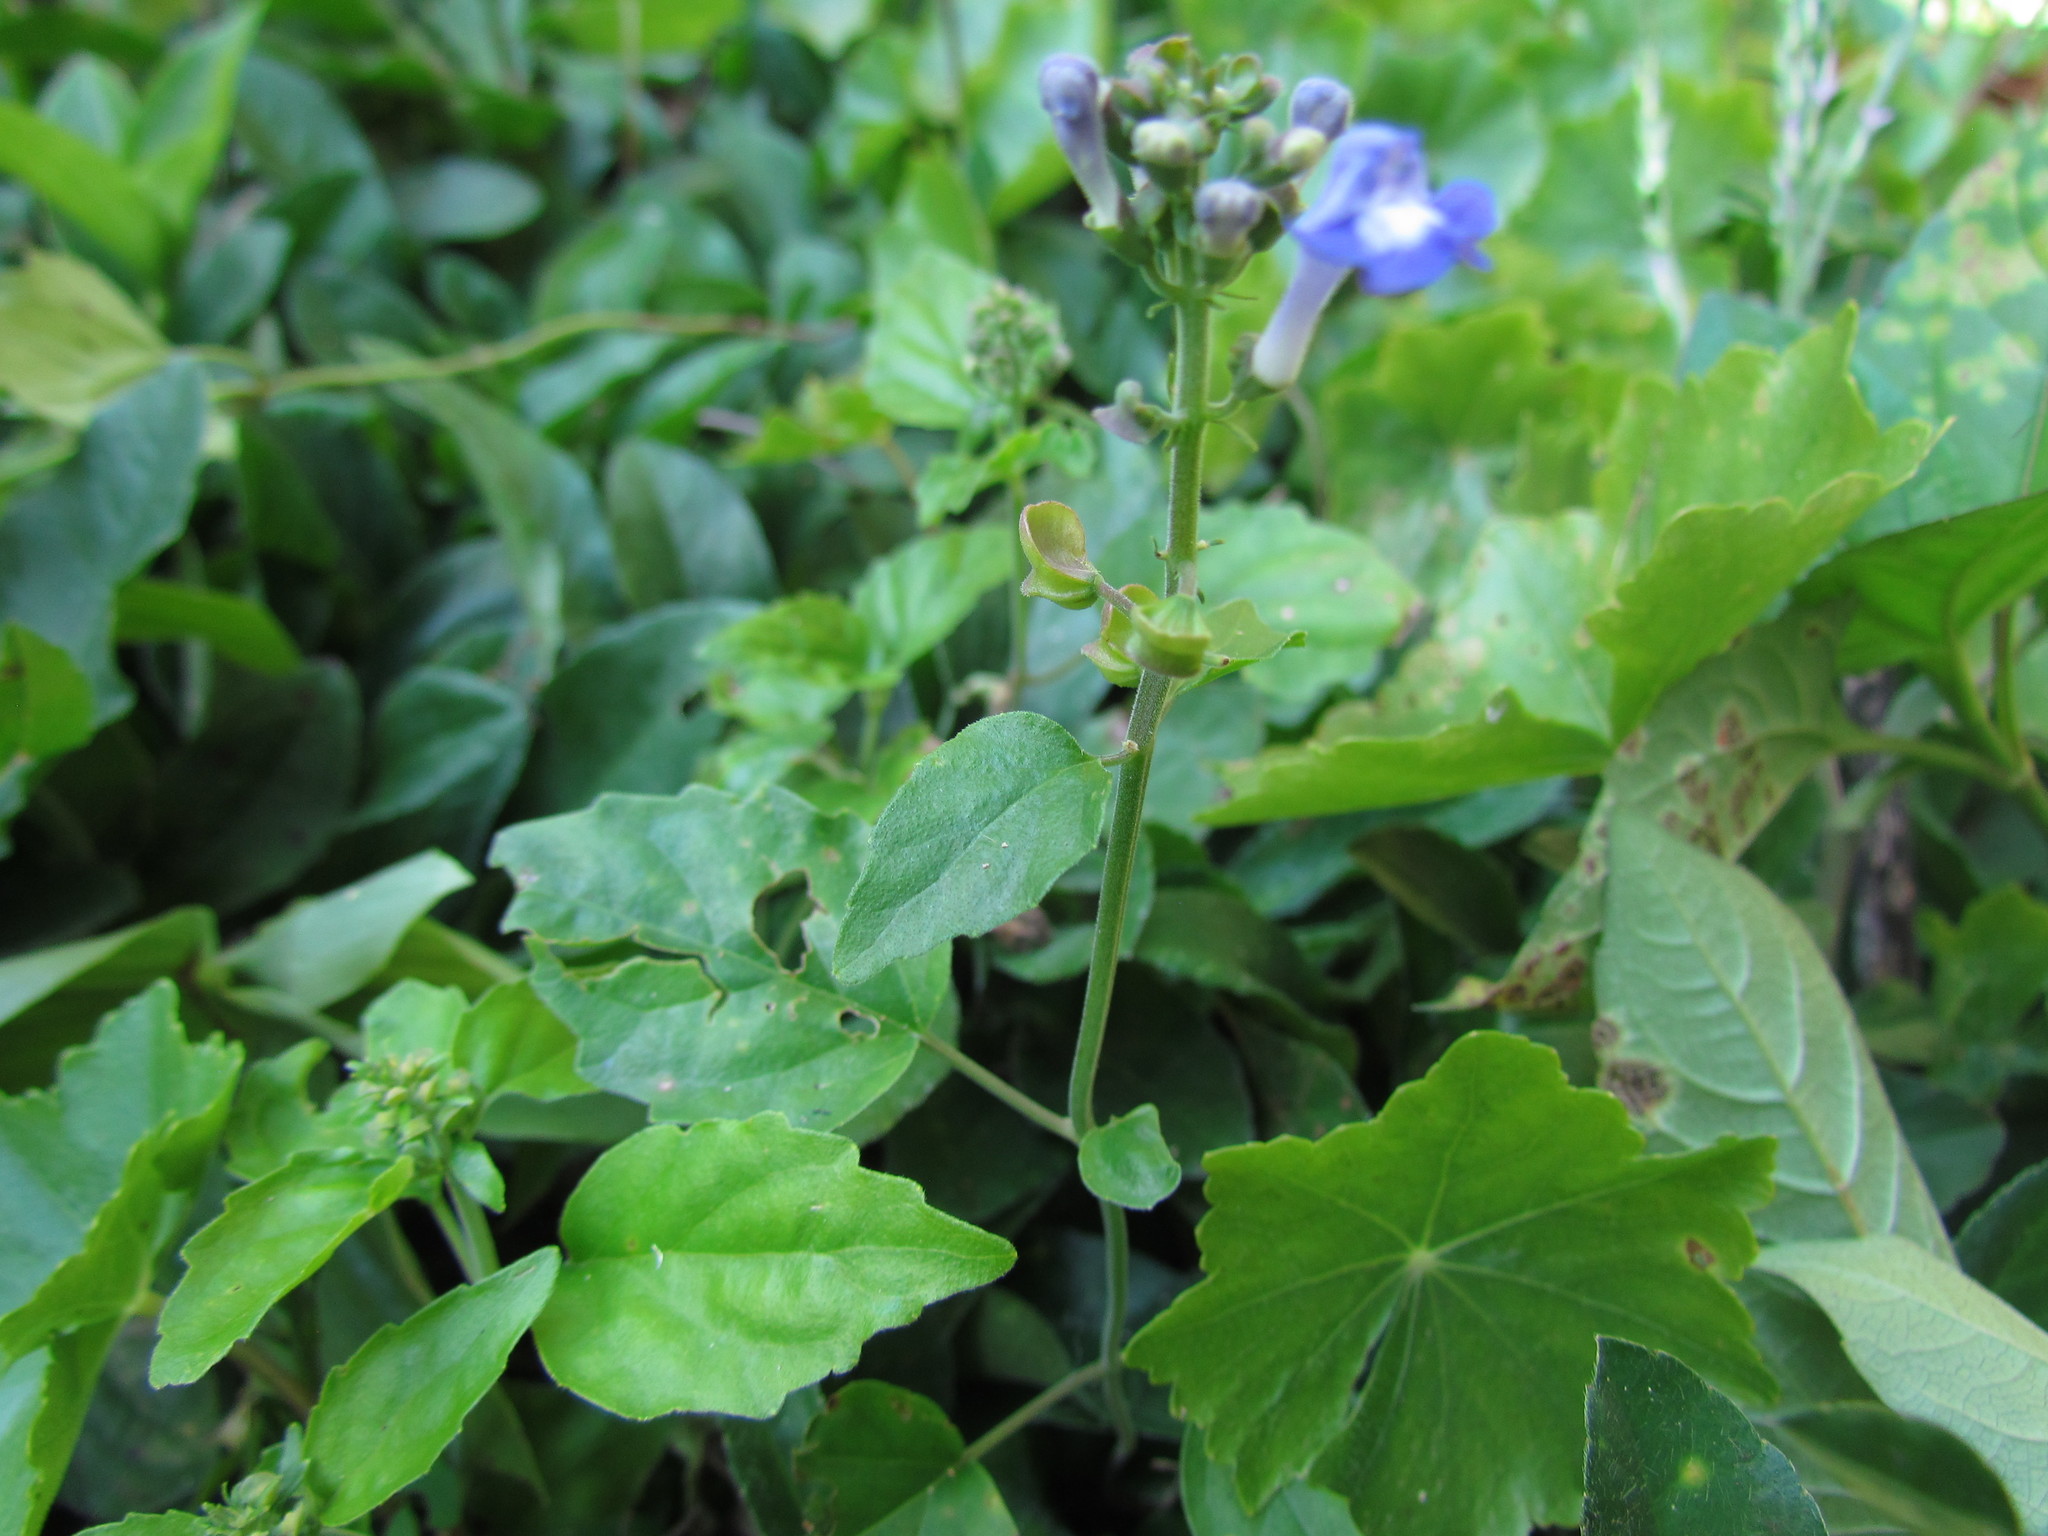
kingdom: Plantae
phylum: Tracheophyta
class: Magnoliopsida
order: Lamiales
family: Lamiaceae
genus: Scutellaria
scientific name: Scutellaria uliginosa
